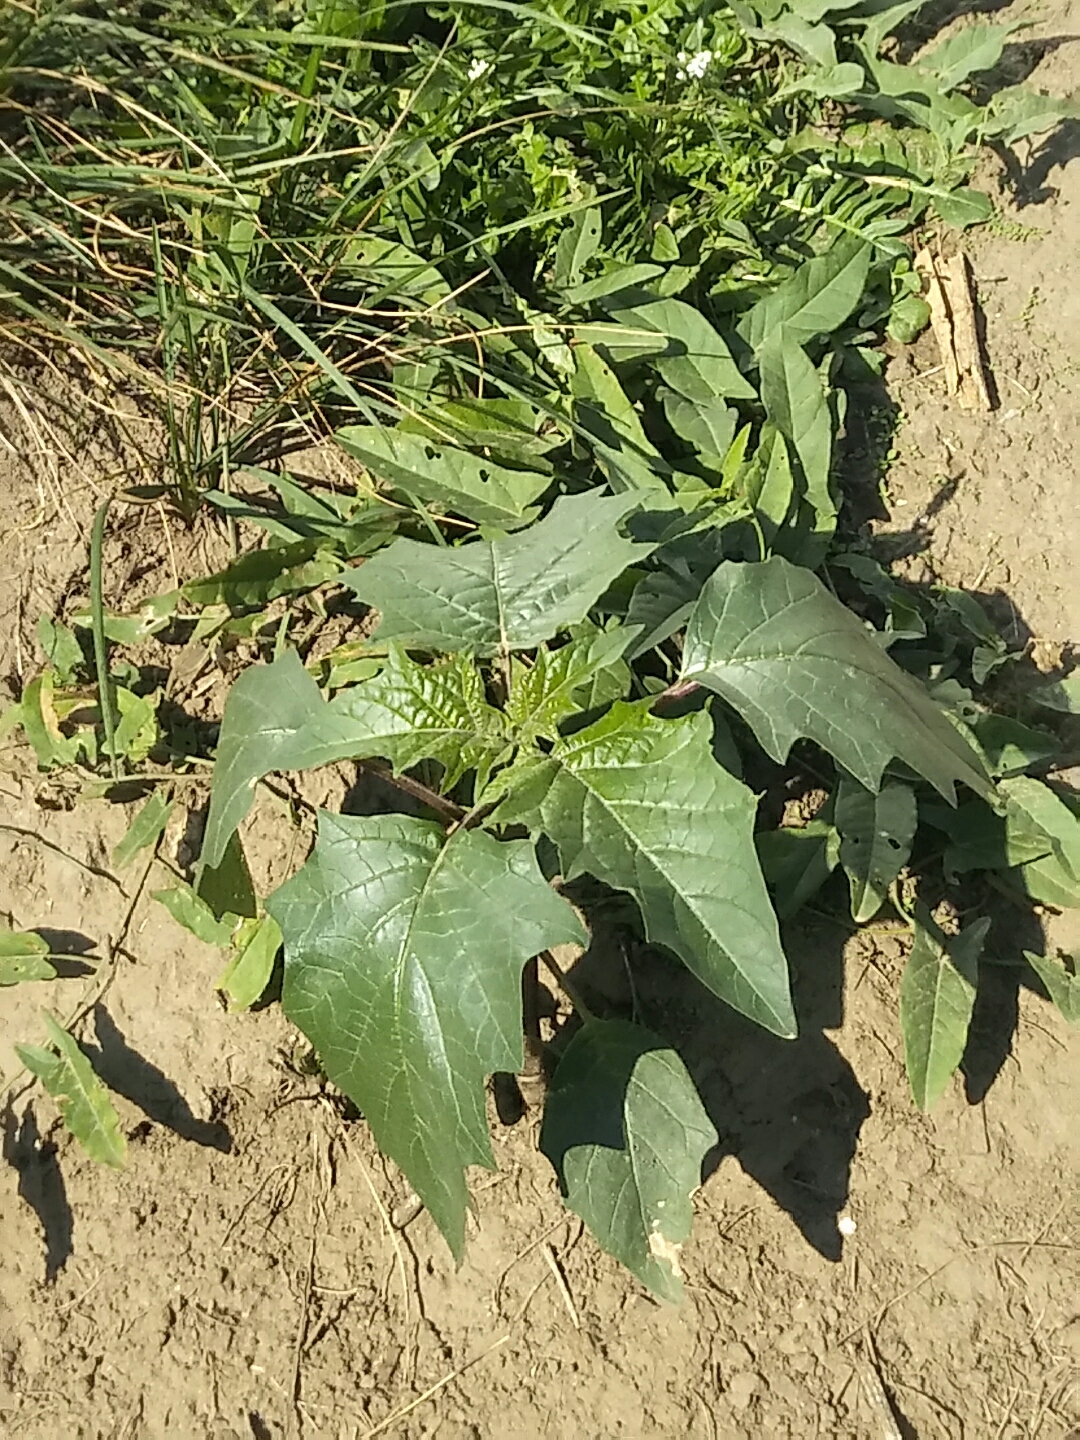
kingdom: Plantae
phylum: Tracheophyta
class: Magnoliopsida
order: Solanales
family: Solanaceae
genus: Datura
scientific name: Datura stramonium
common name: Thorn-apple
